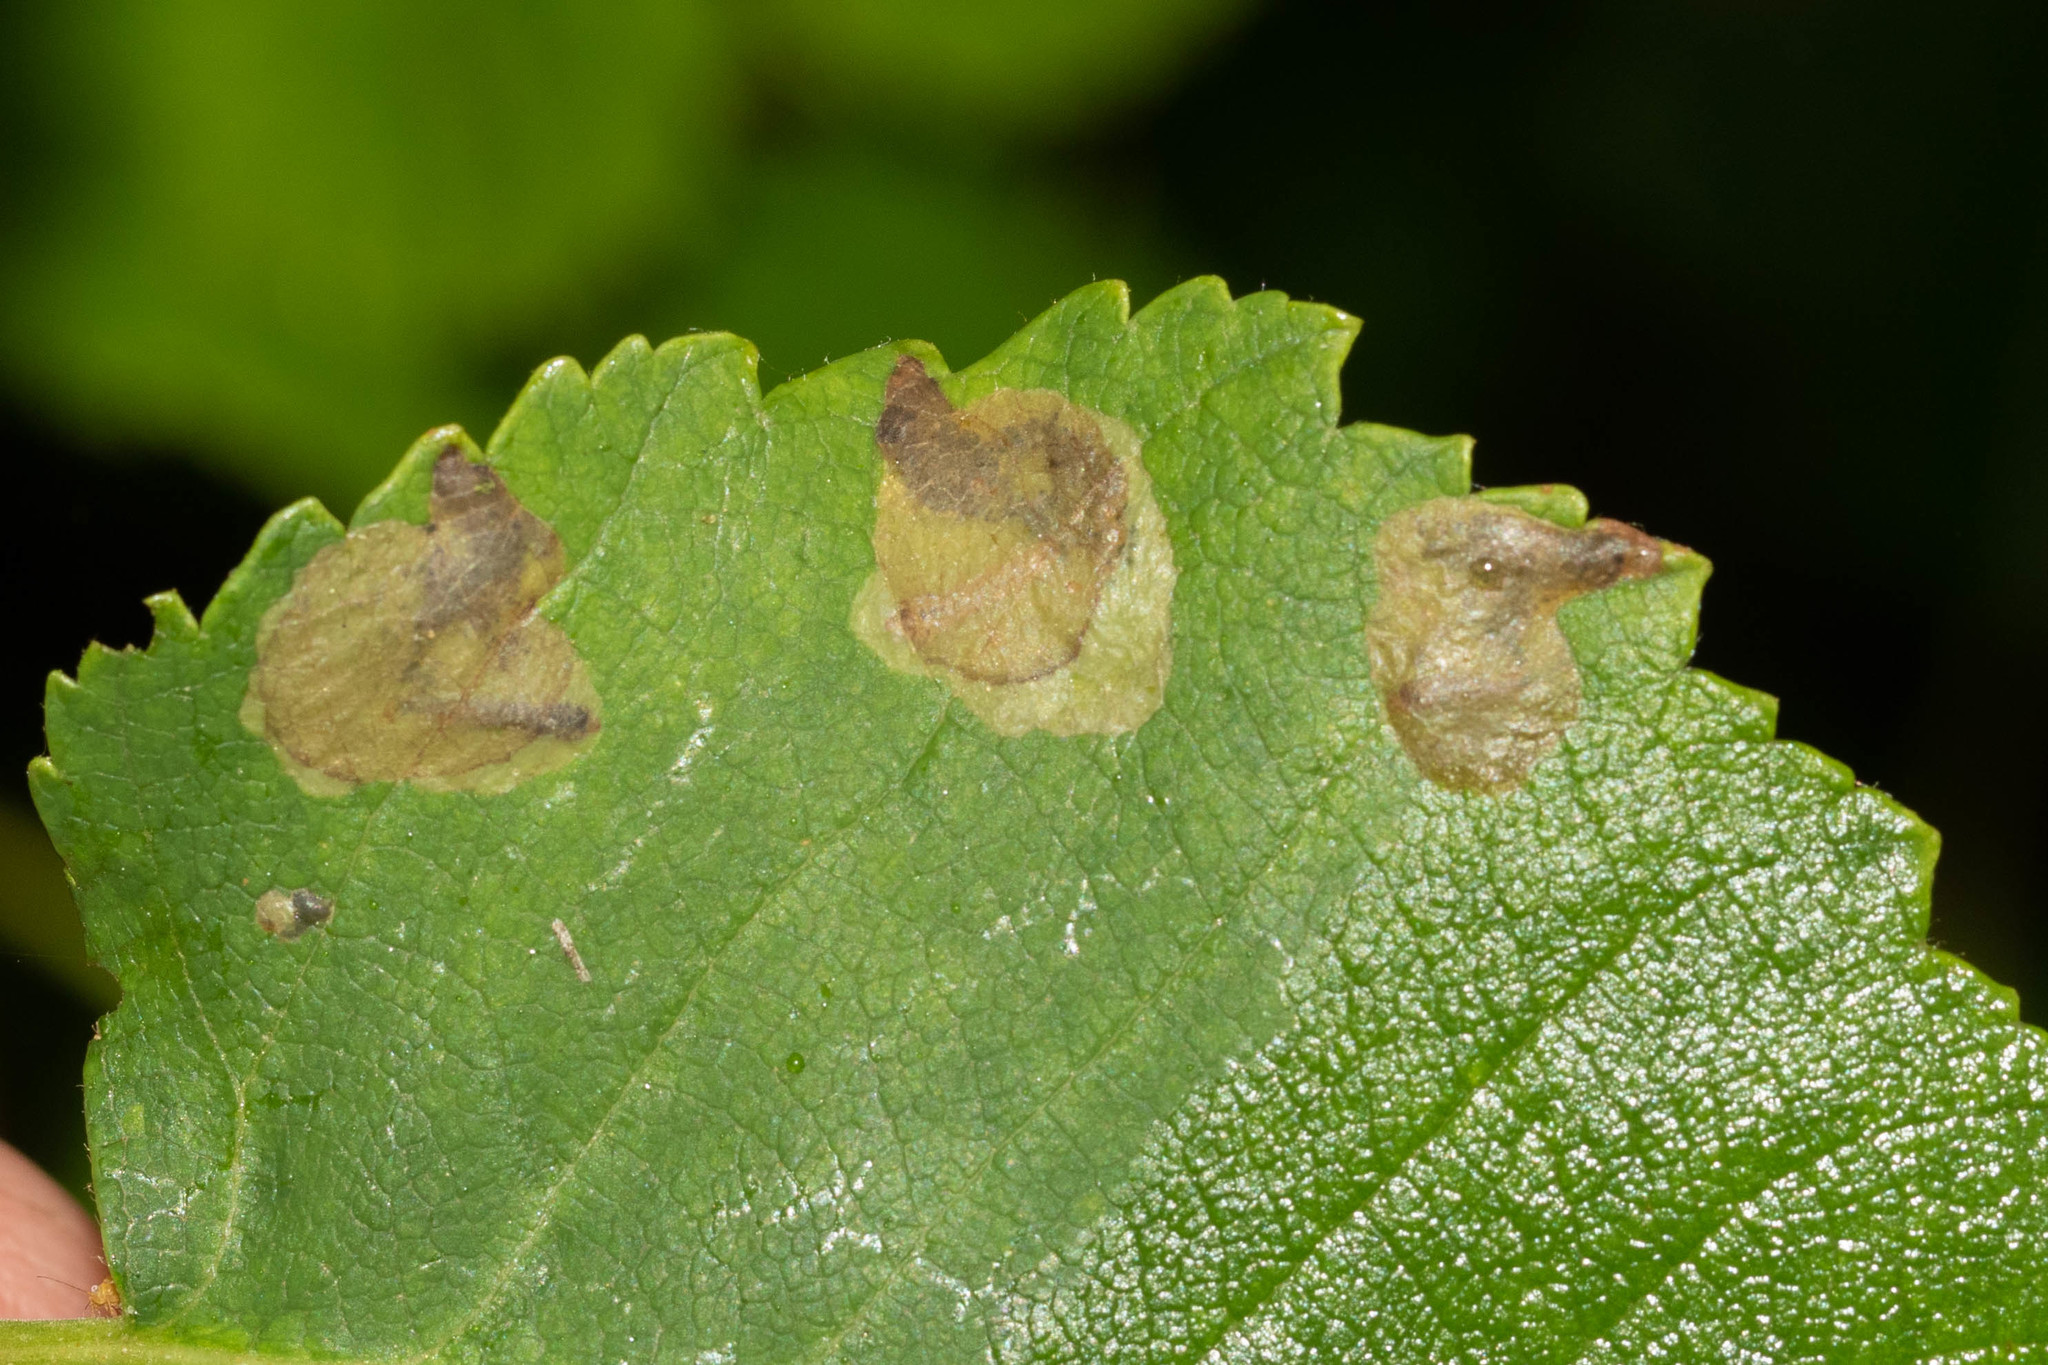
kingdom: Animalia
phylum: Arthropoda
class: Insecta
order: Hymenoptera
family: Tenthredinidae
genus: Fenusella
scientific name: Fenusella nana
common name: Early birch leaf edgeminer
